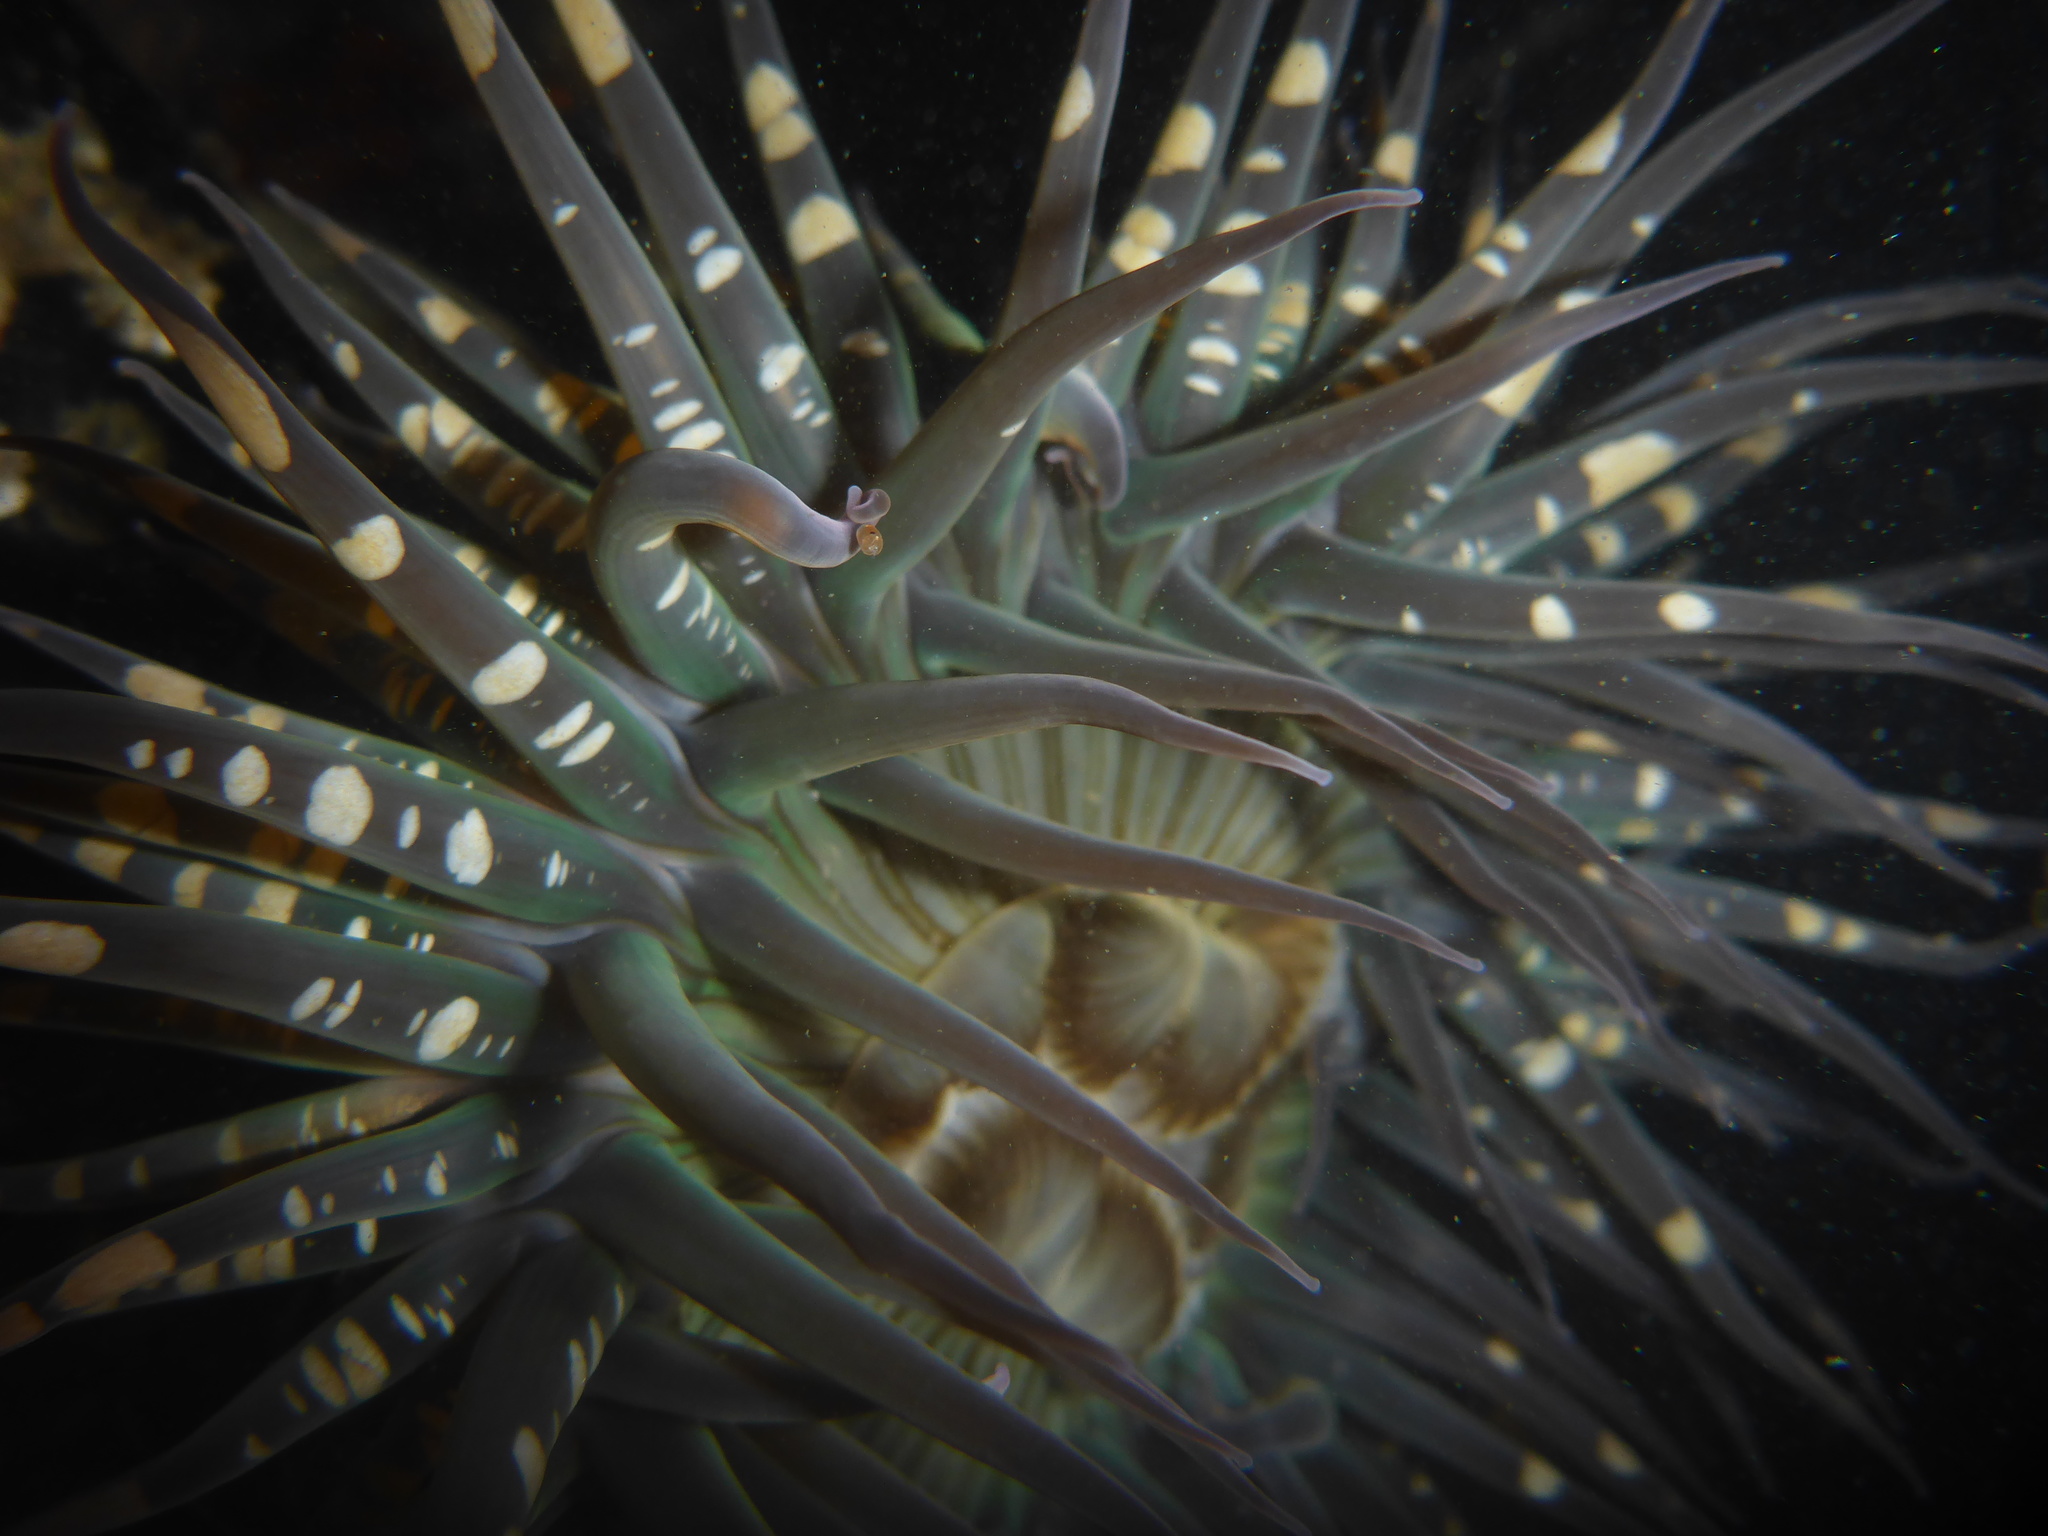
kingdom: Animalia
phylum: Cnidaria
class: Anthozoa
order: Actiniaria
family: Actiniidae
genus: Anthopleura
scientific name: Anthopleura sola
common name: Sun anemone
